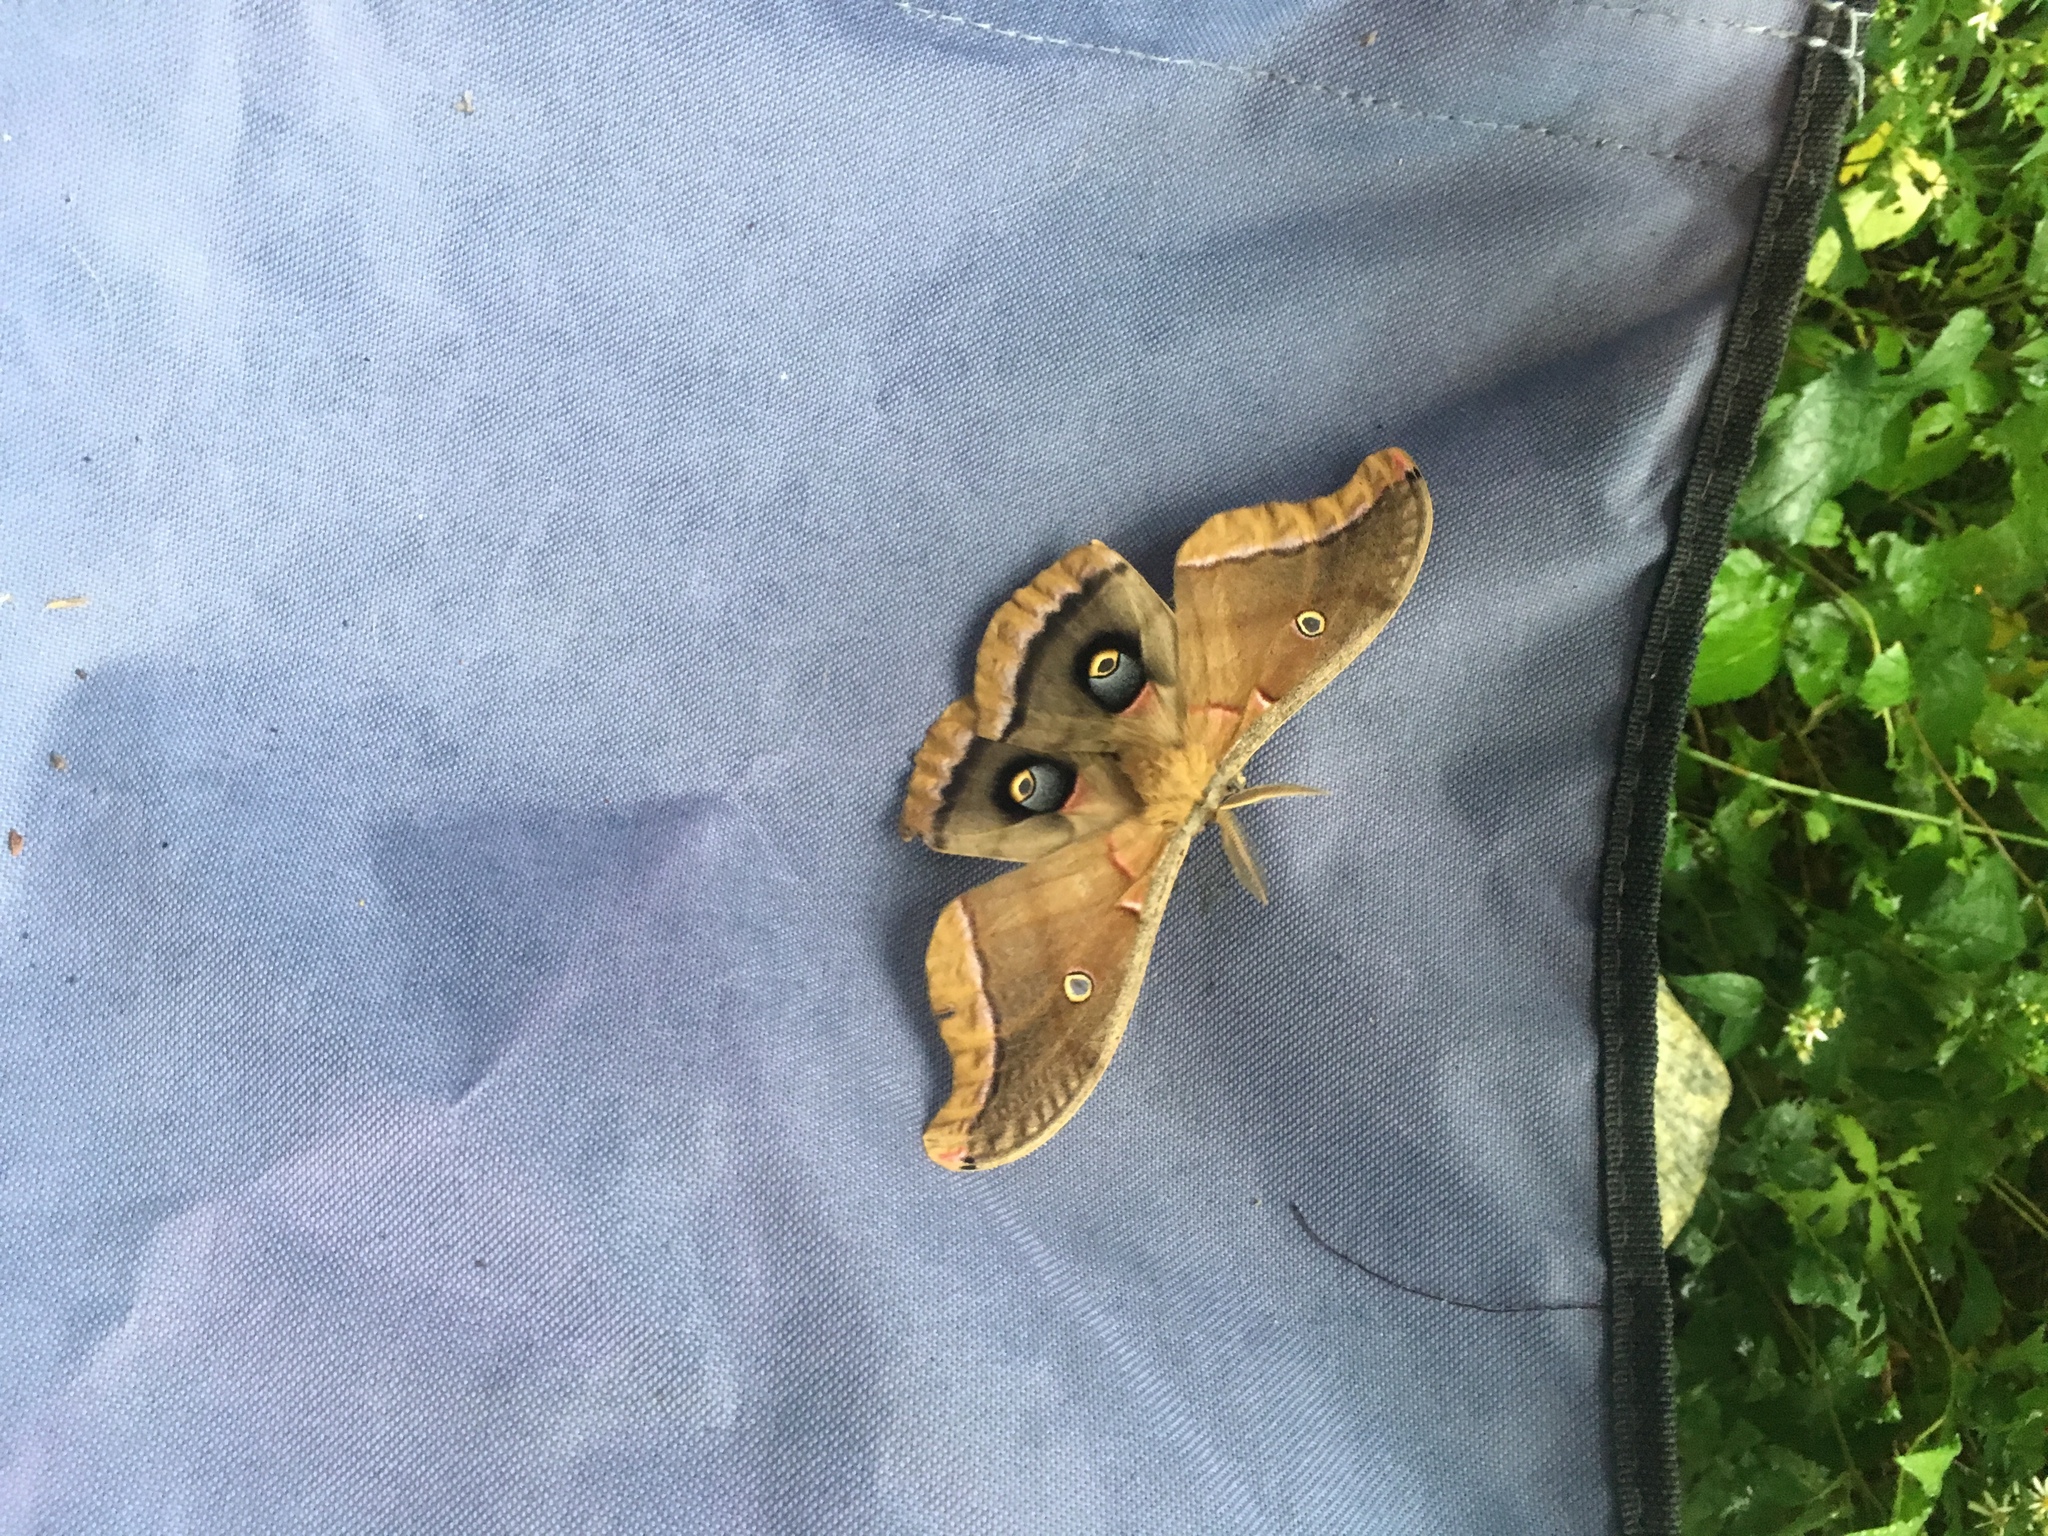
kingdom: Animalia
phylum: Arthropoda
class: Insecta
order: Lepidoptera
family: Saturniidae
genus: Antheraea
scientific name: Antheraea polyphemus
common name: Polyphemus moth
